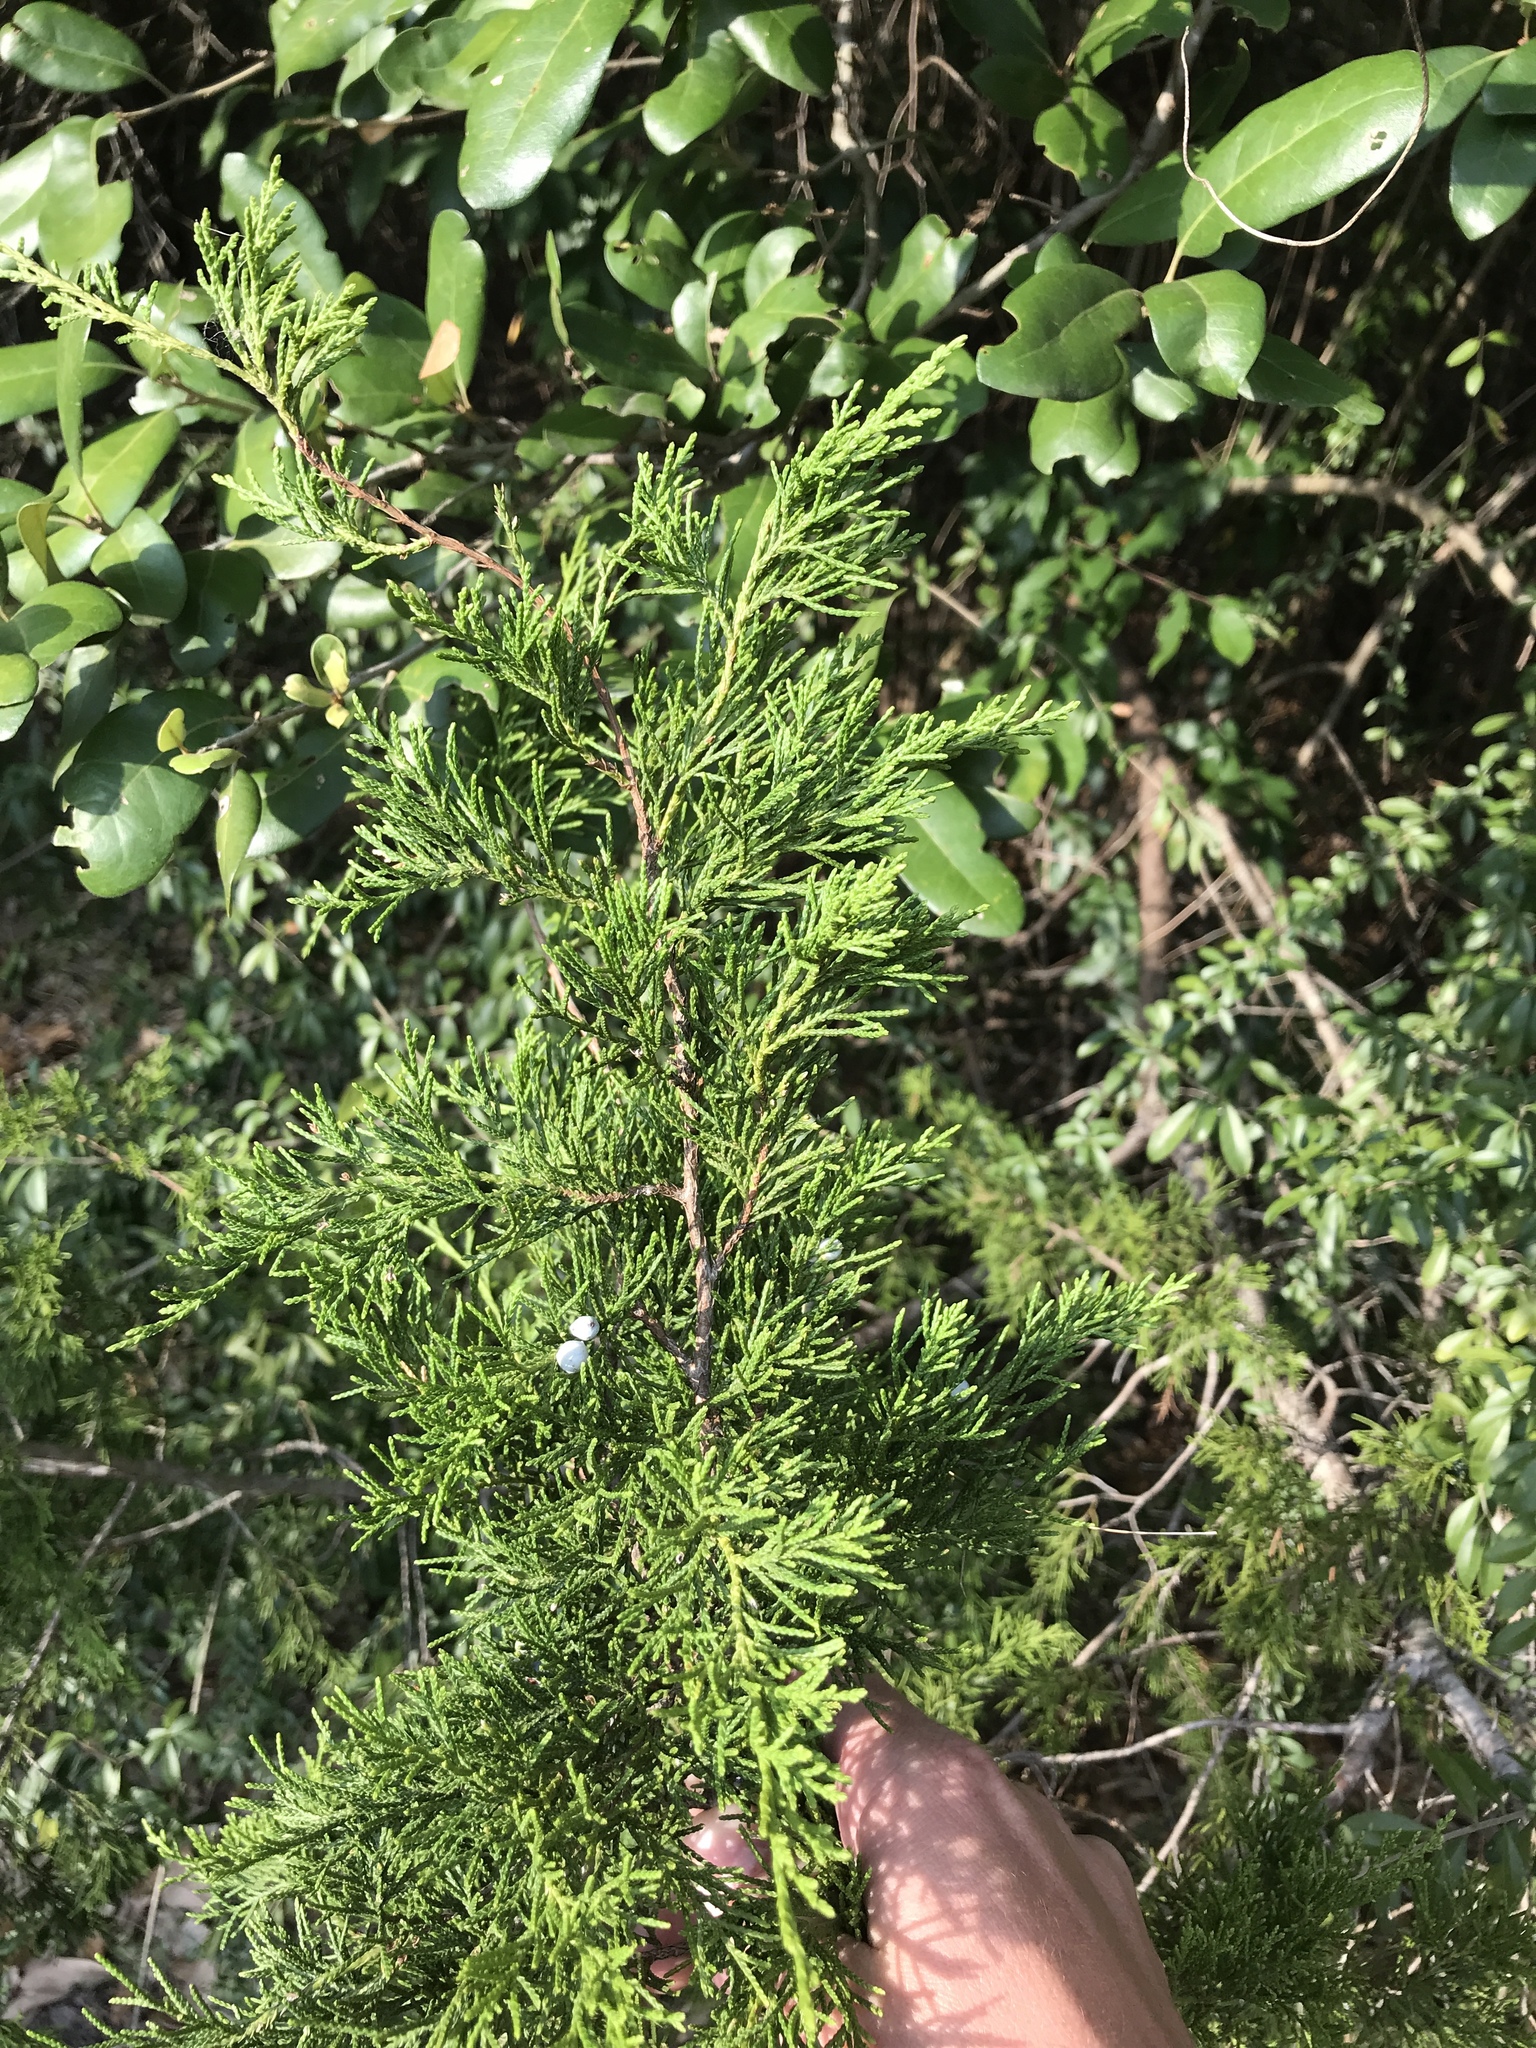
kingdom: Plantae
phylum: Tracheophyta
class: Pinopsida
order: Pinales
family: Cupressaceae
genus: Juniperus
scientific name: Juniperus virginiana
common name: Red juniper
